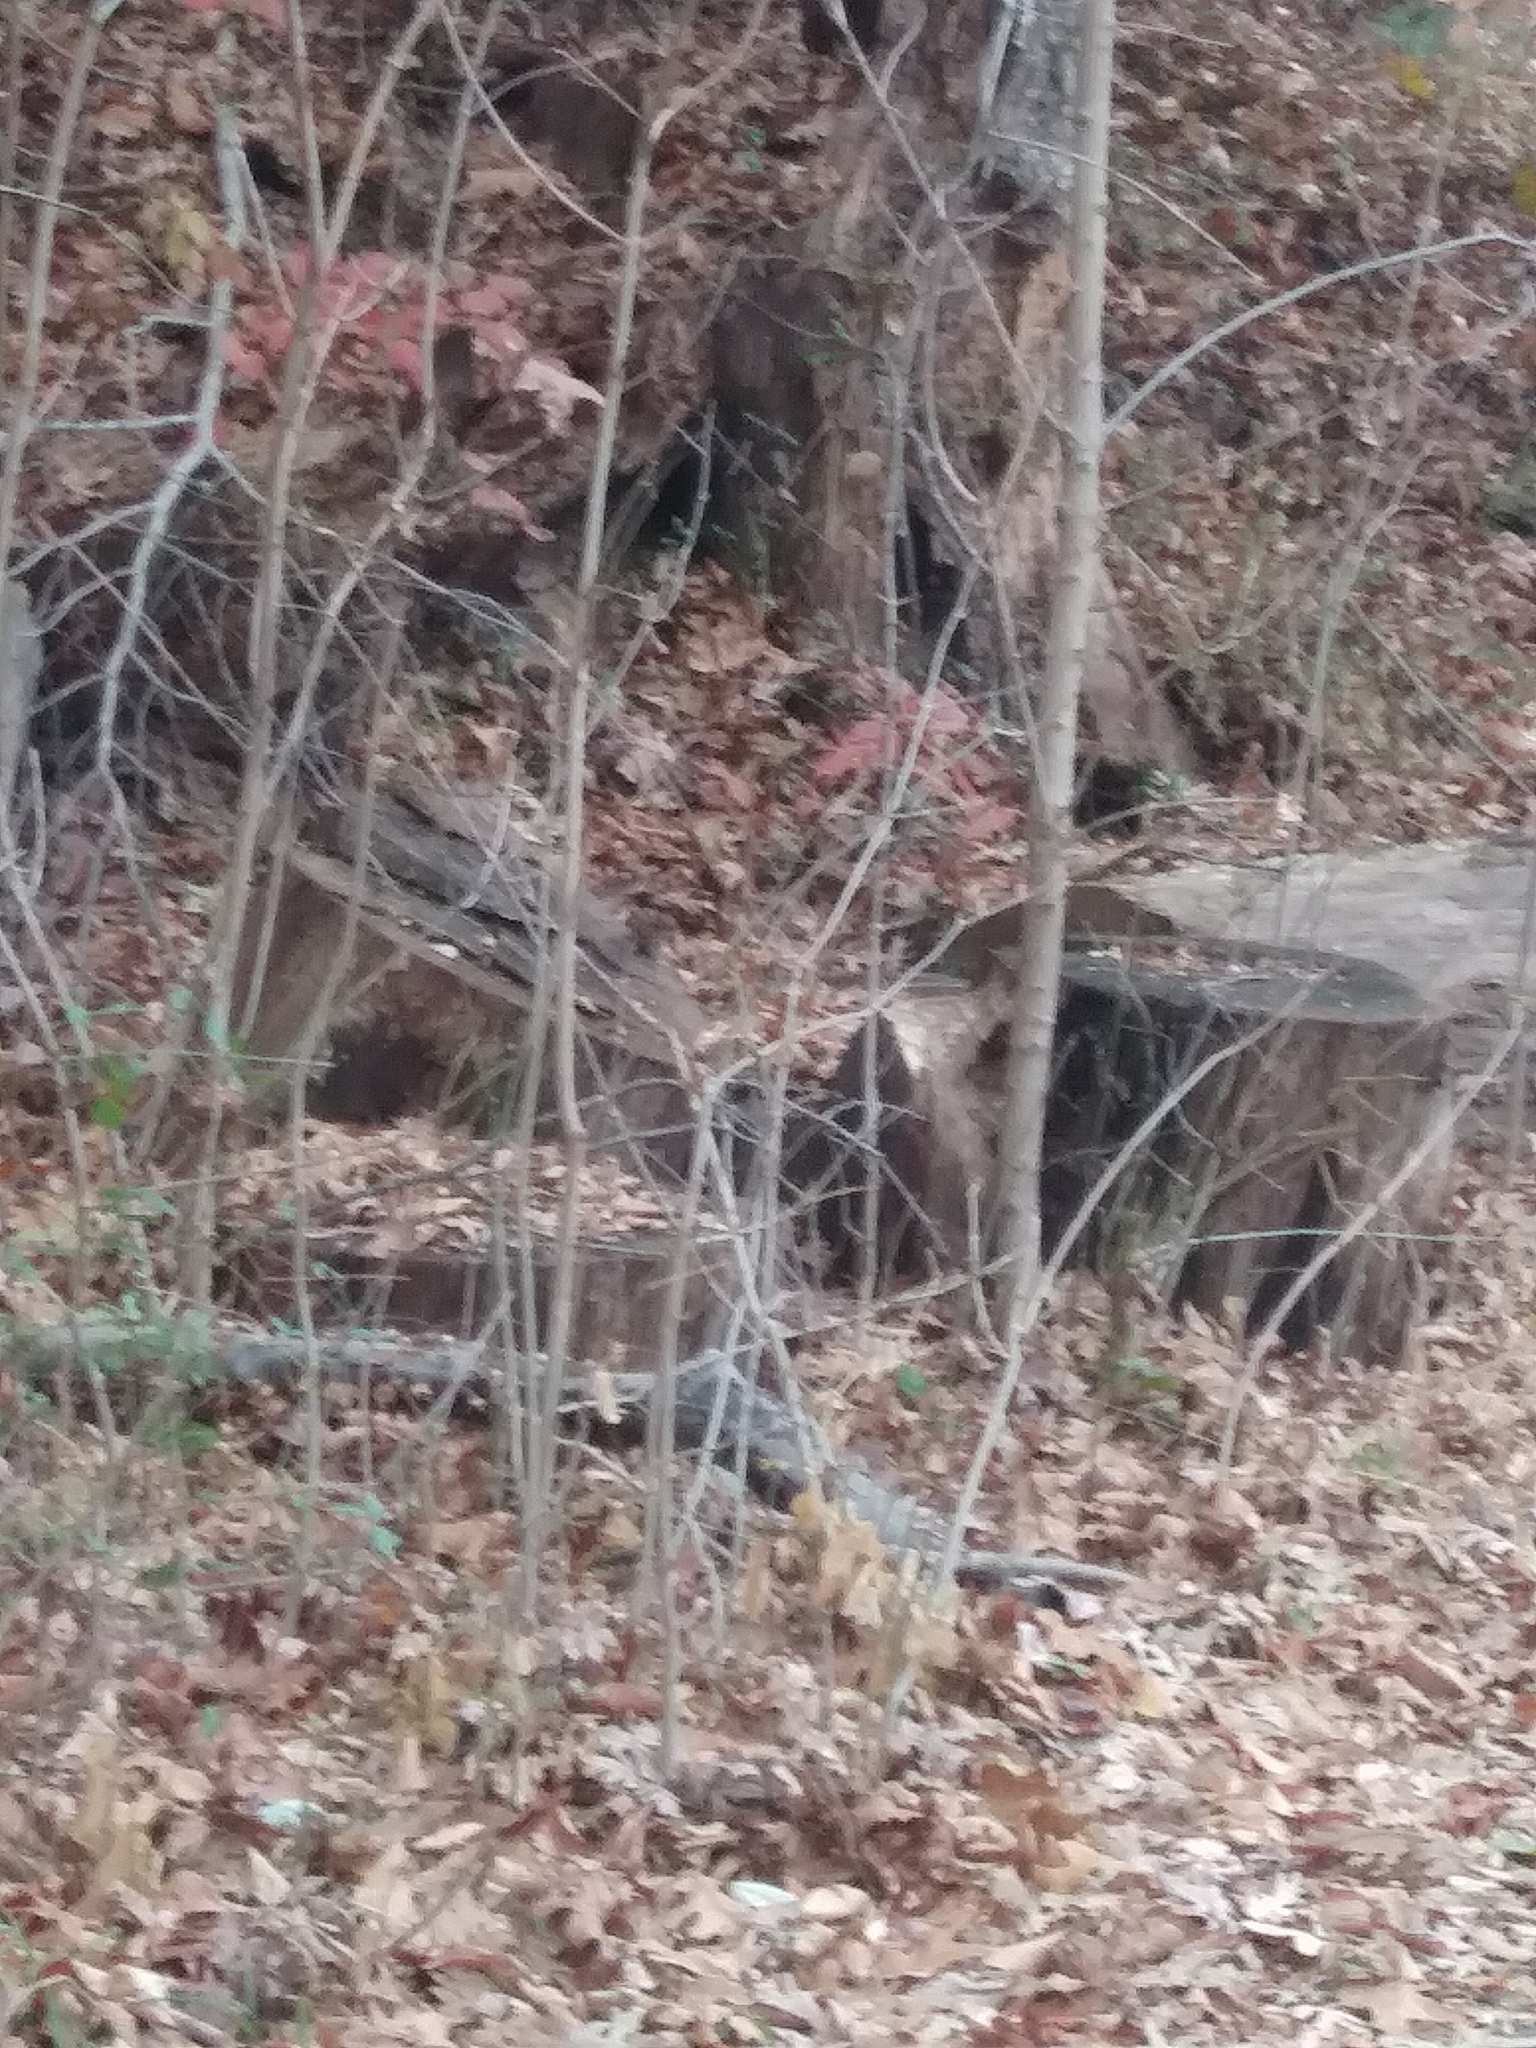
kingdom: Animalia
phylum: Chordata
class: Mammalia
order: Rodentia
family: Sciuridae
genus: Tamias
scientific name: Tamias striatus
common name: Eastern chipmunk
